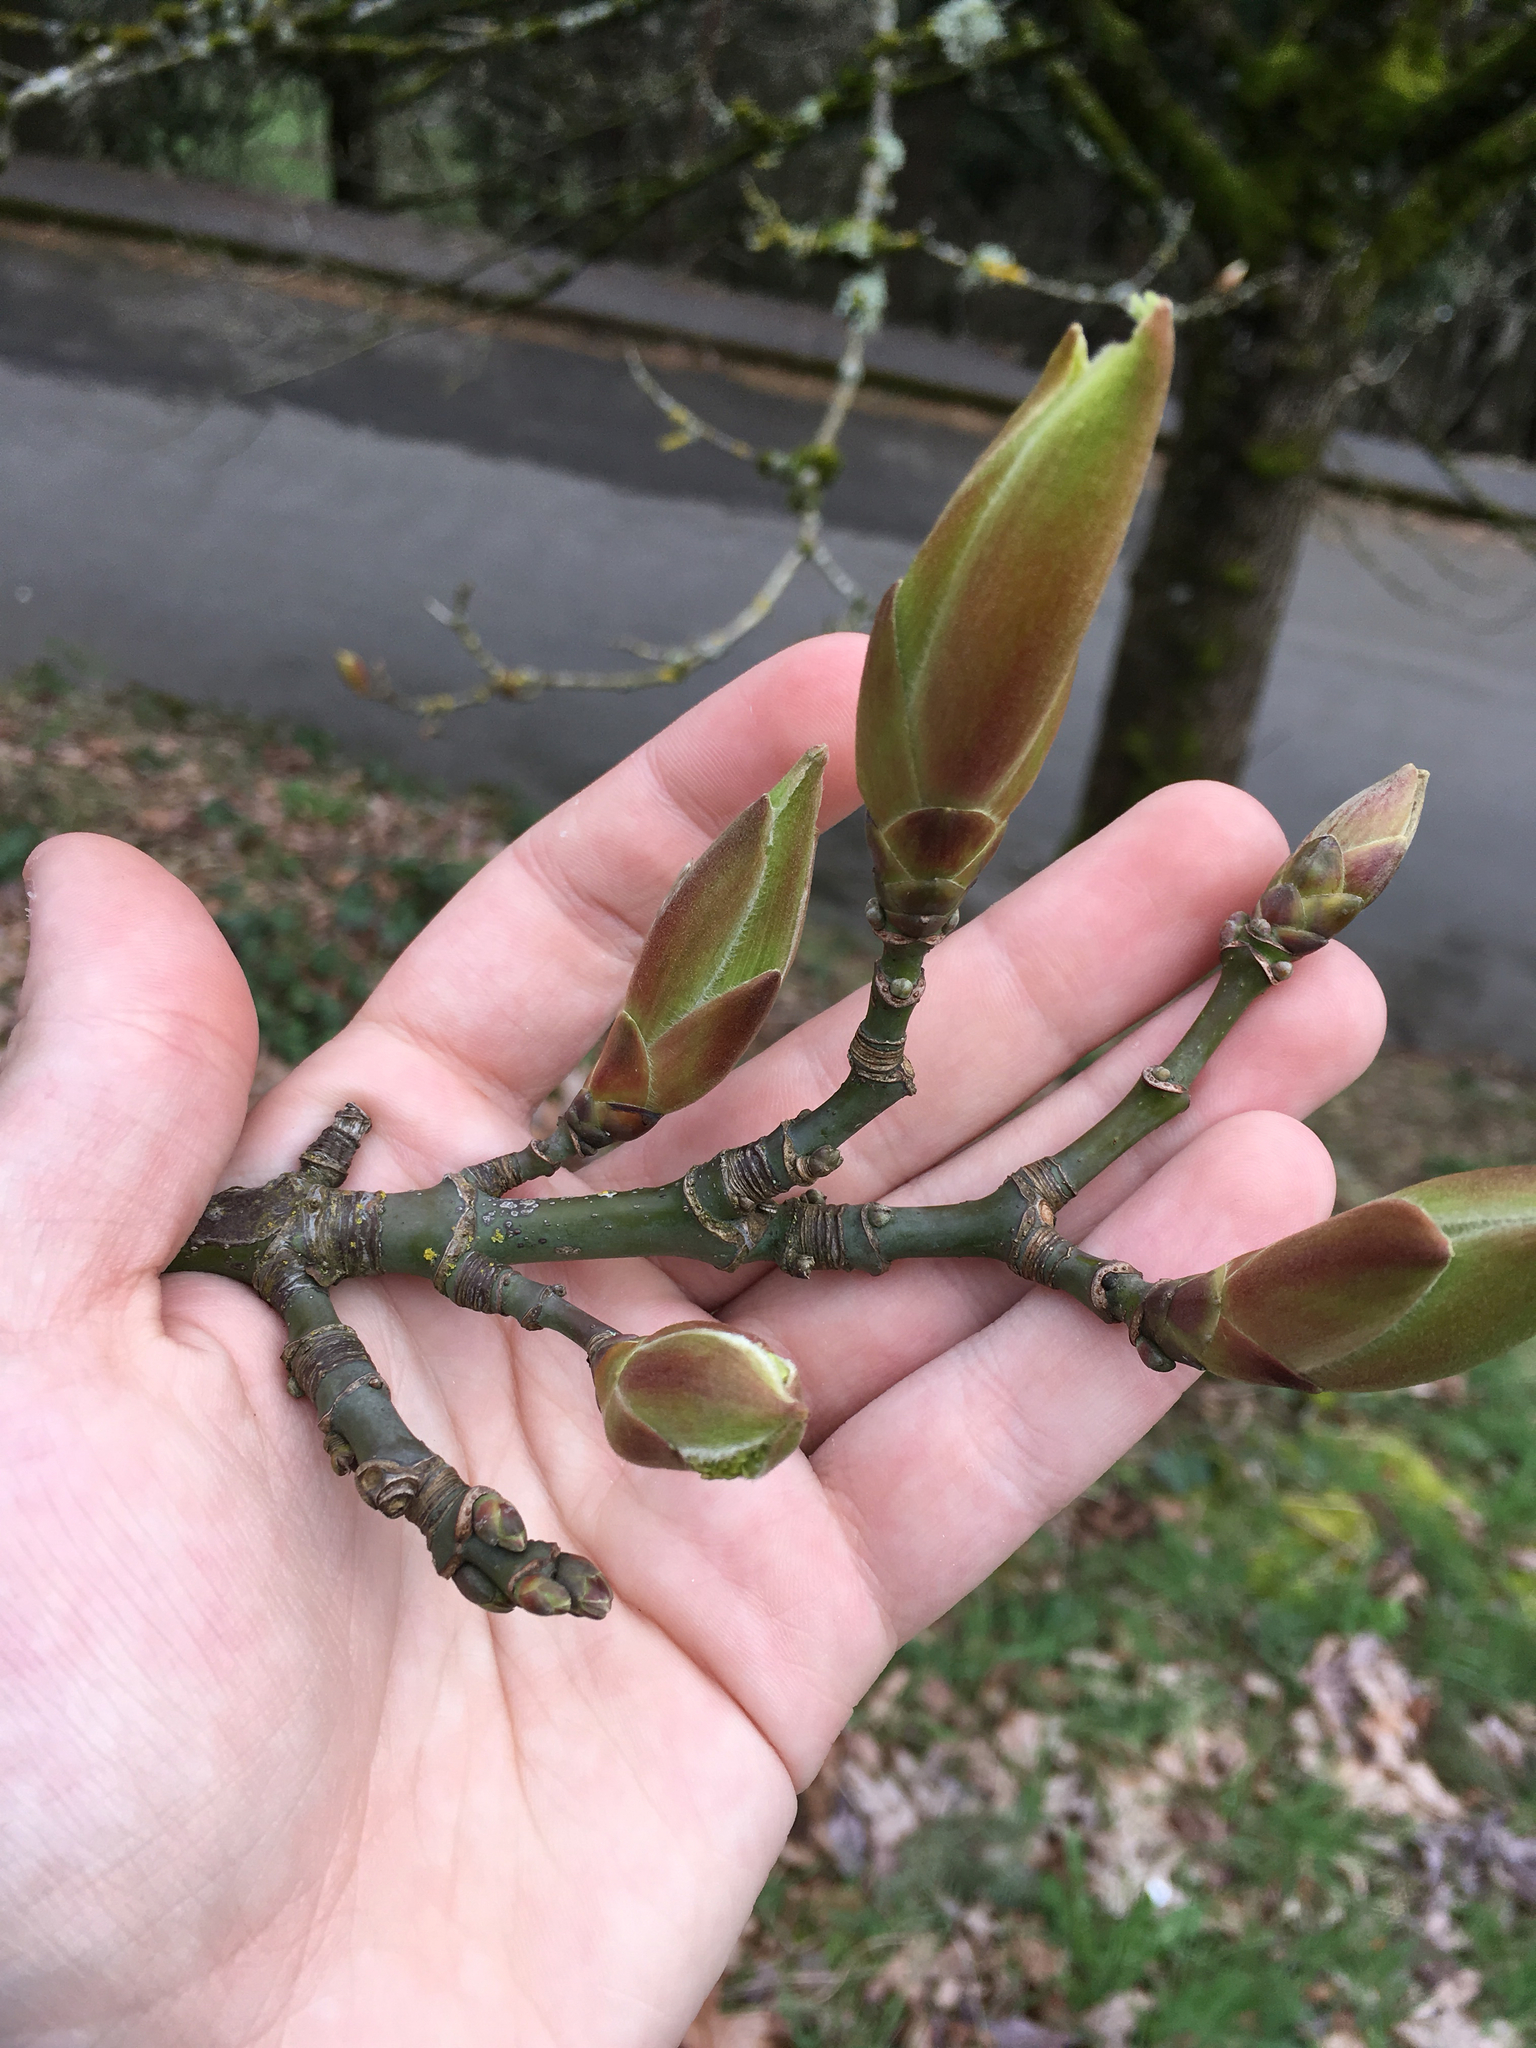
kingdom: Plantae
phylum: Tracheophyta
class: Magnoliopsida
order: Sapindales
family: Sapindaceae
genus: Acer
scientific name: Acer macrophyllum
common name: Oregon maple
